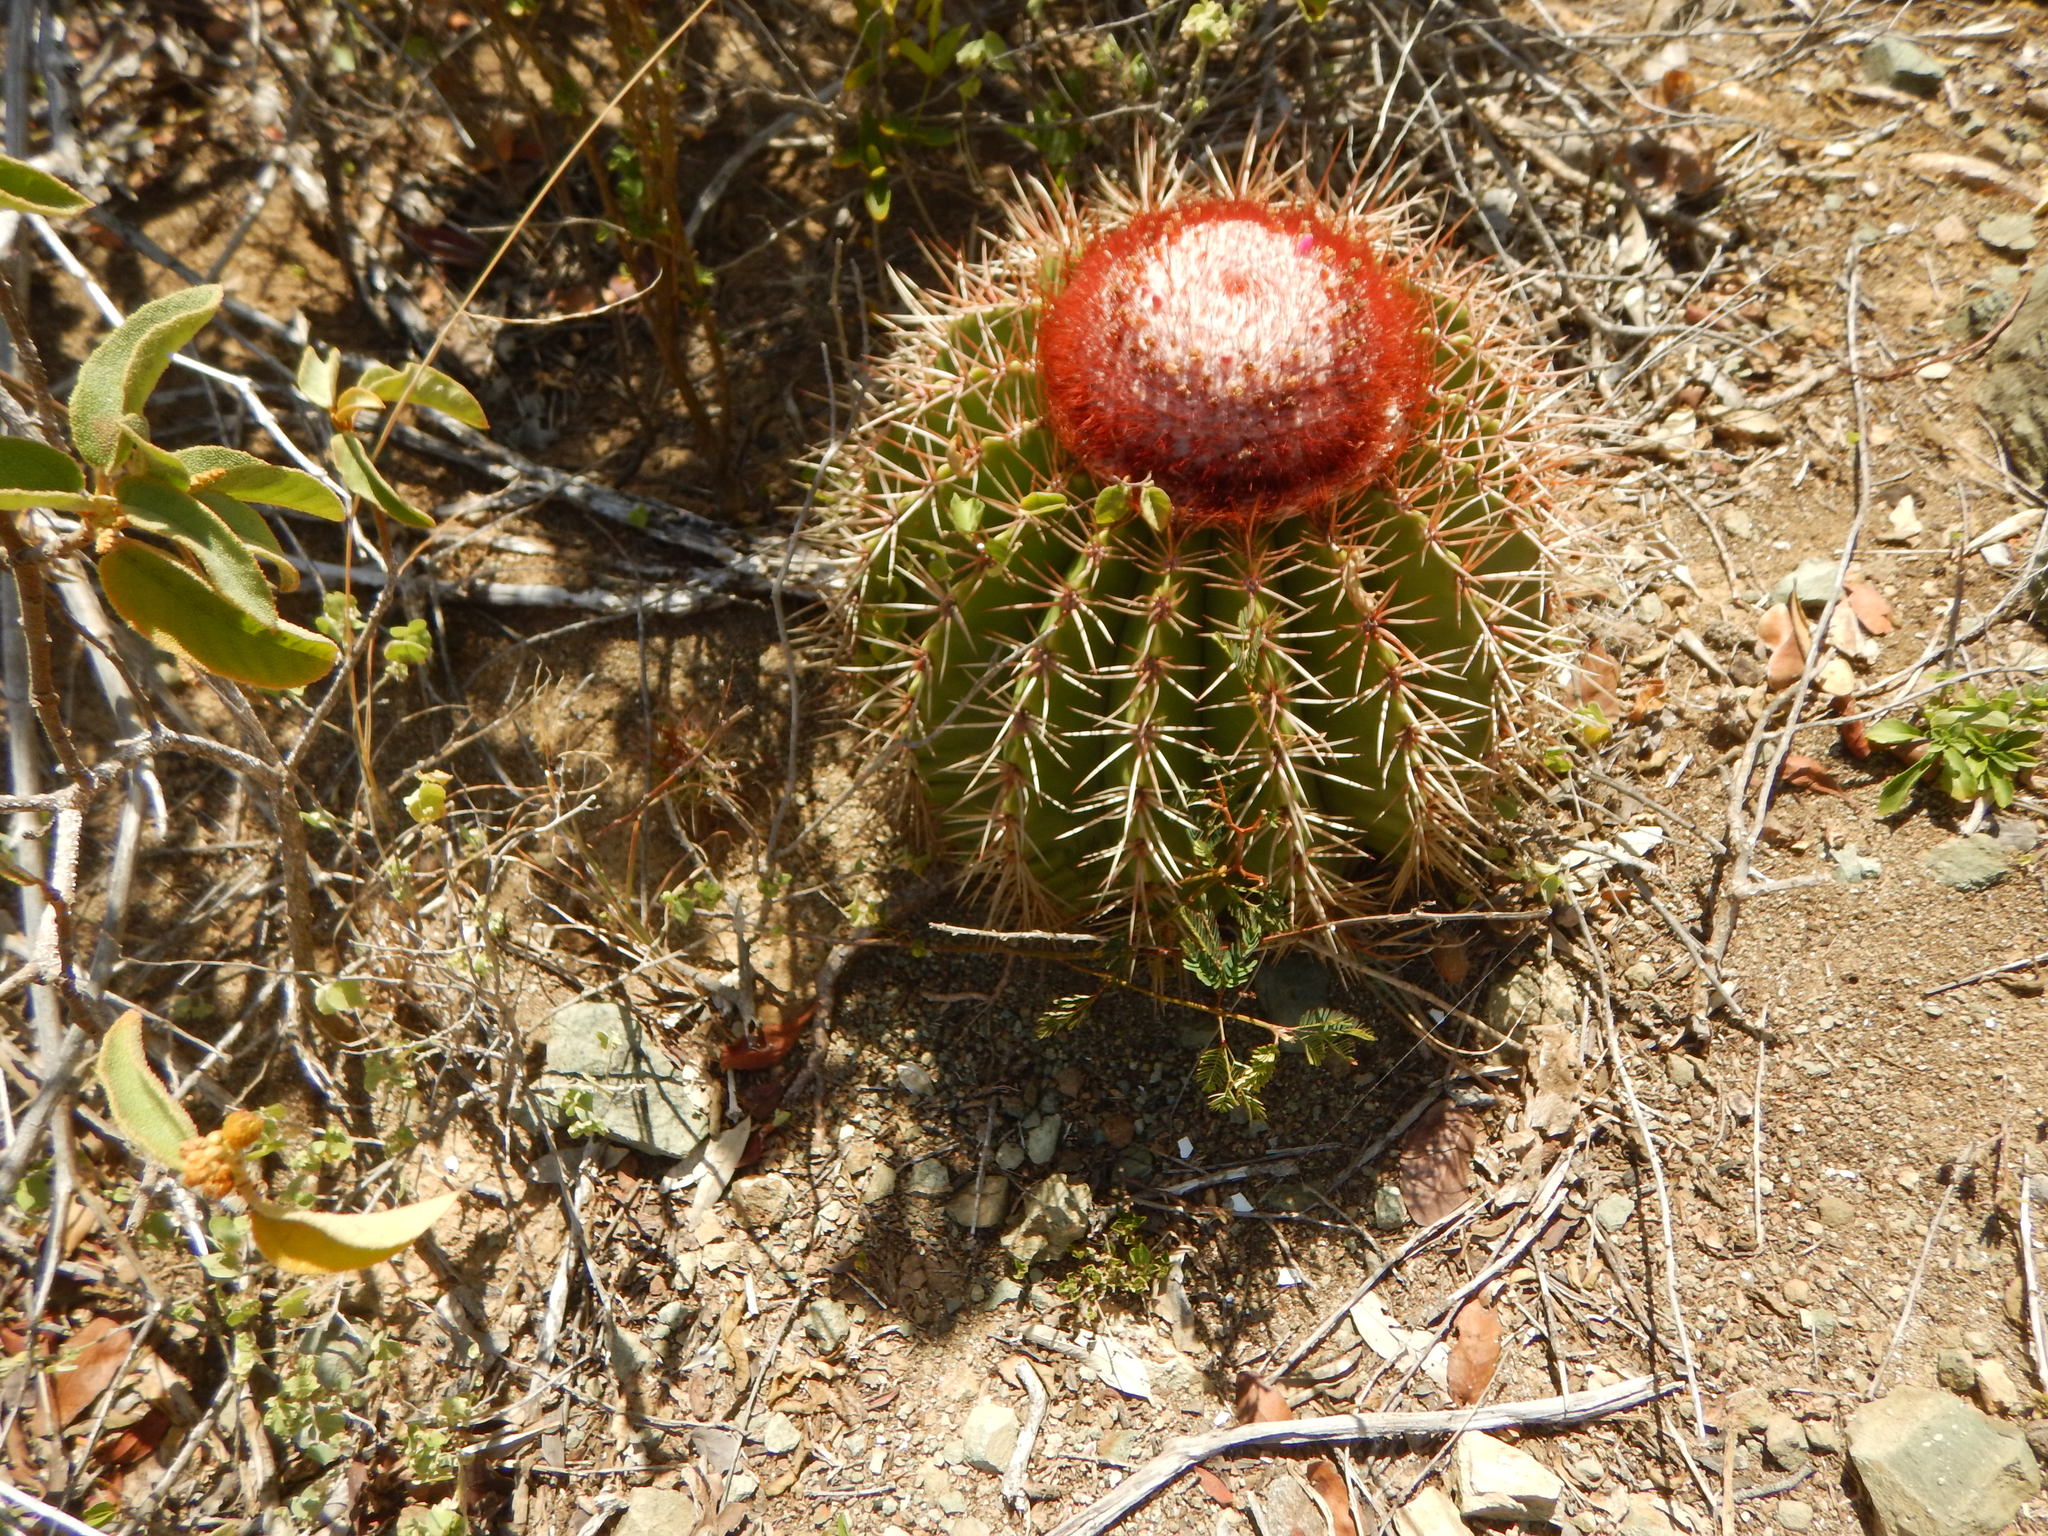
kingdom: Plantae
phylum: Tracheophyta
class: Magnoliopsida
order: Caryophyllales
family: Cactaceae
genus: Melocactus
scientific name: Melocactus intortus
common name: Barrel cactus
